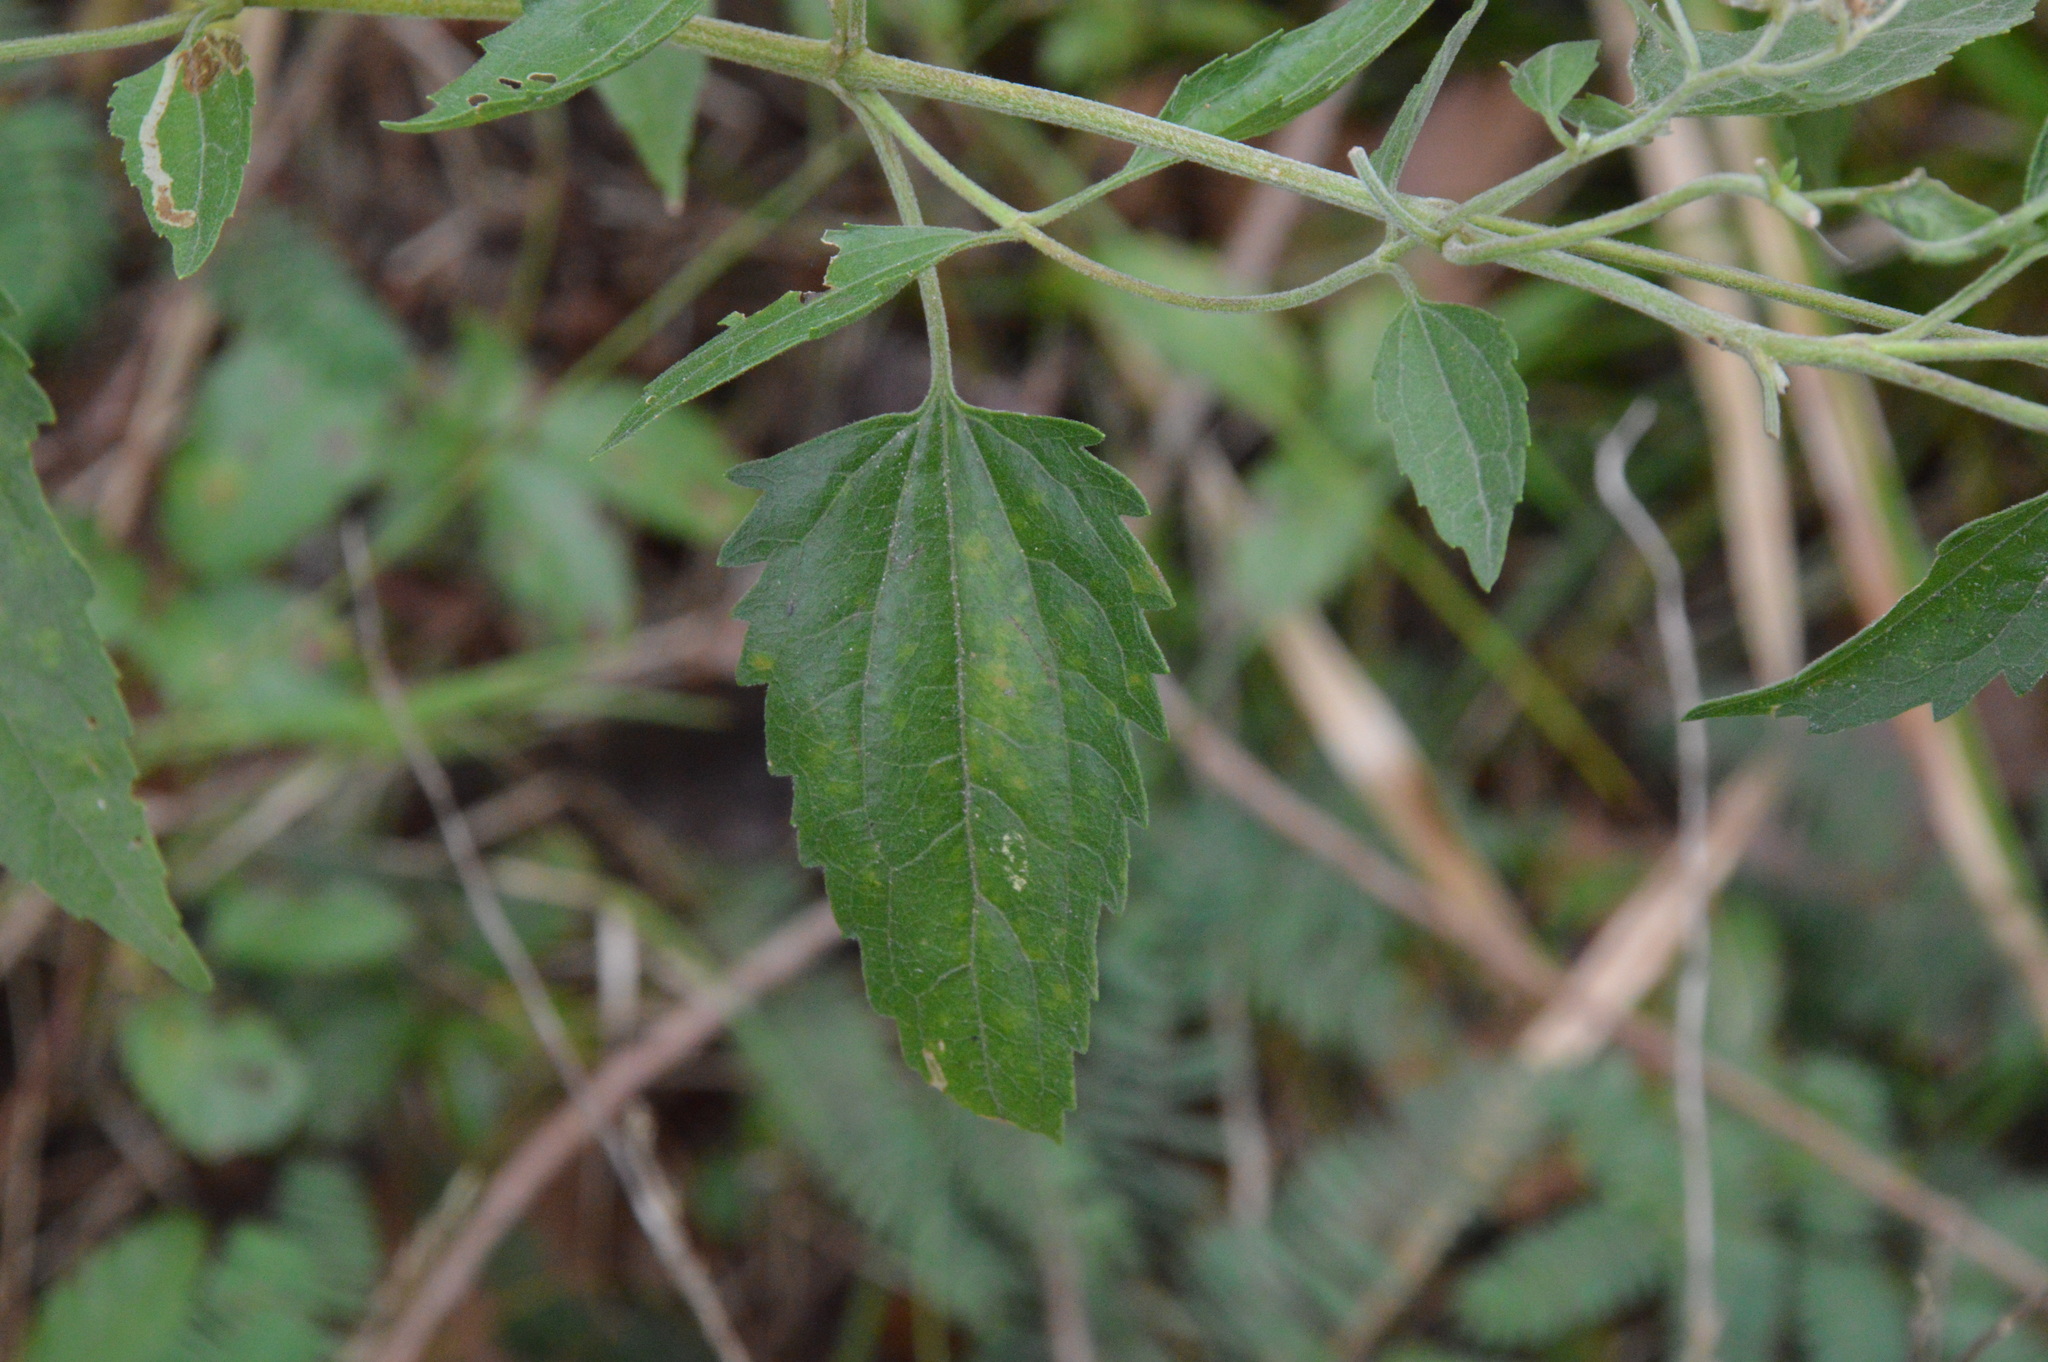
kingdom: Plantae
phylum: Tracheophyta
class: Magnoliopsida
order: Asterales
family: Asteraceae
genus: Eupatorium
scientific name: Eupatorium serotinum
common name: Late boneset
